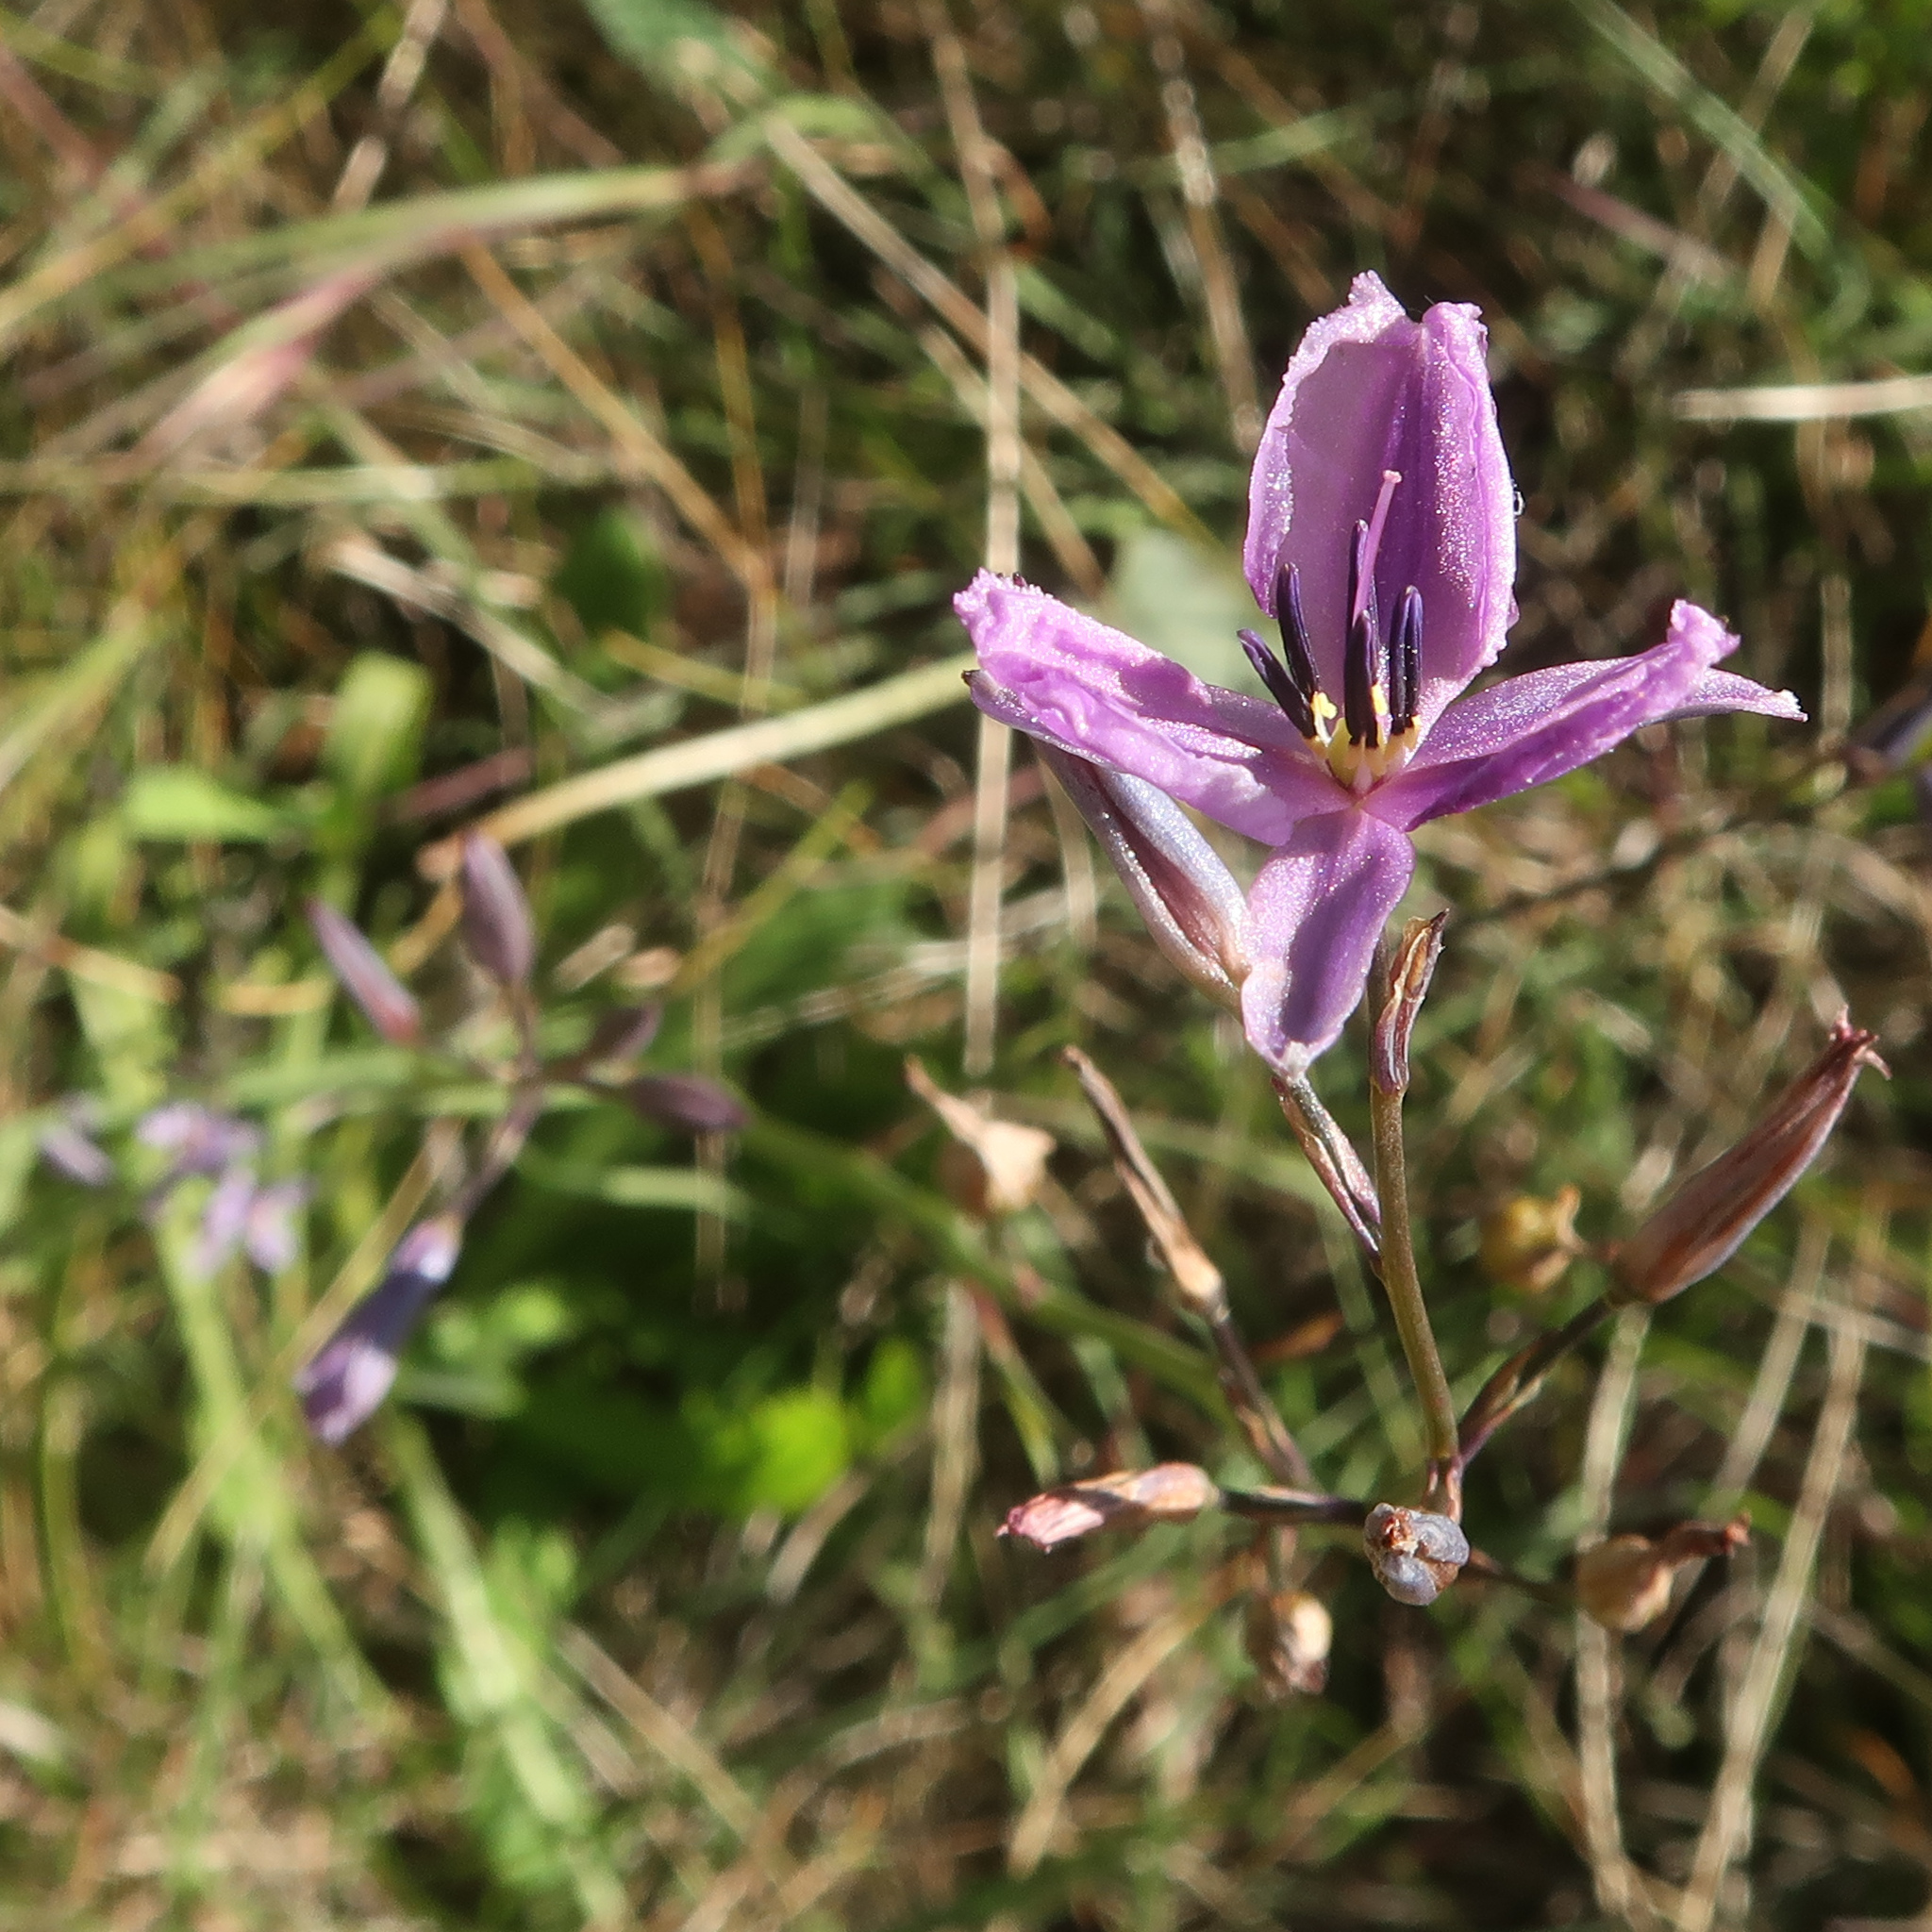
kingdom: Plantae
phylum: Tracheophyta
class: Liliopsida
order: Asparagales
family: Asparagaceae
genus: Arthropodium
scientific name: Arthropodium strictum
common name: Chocolate-lily
